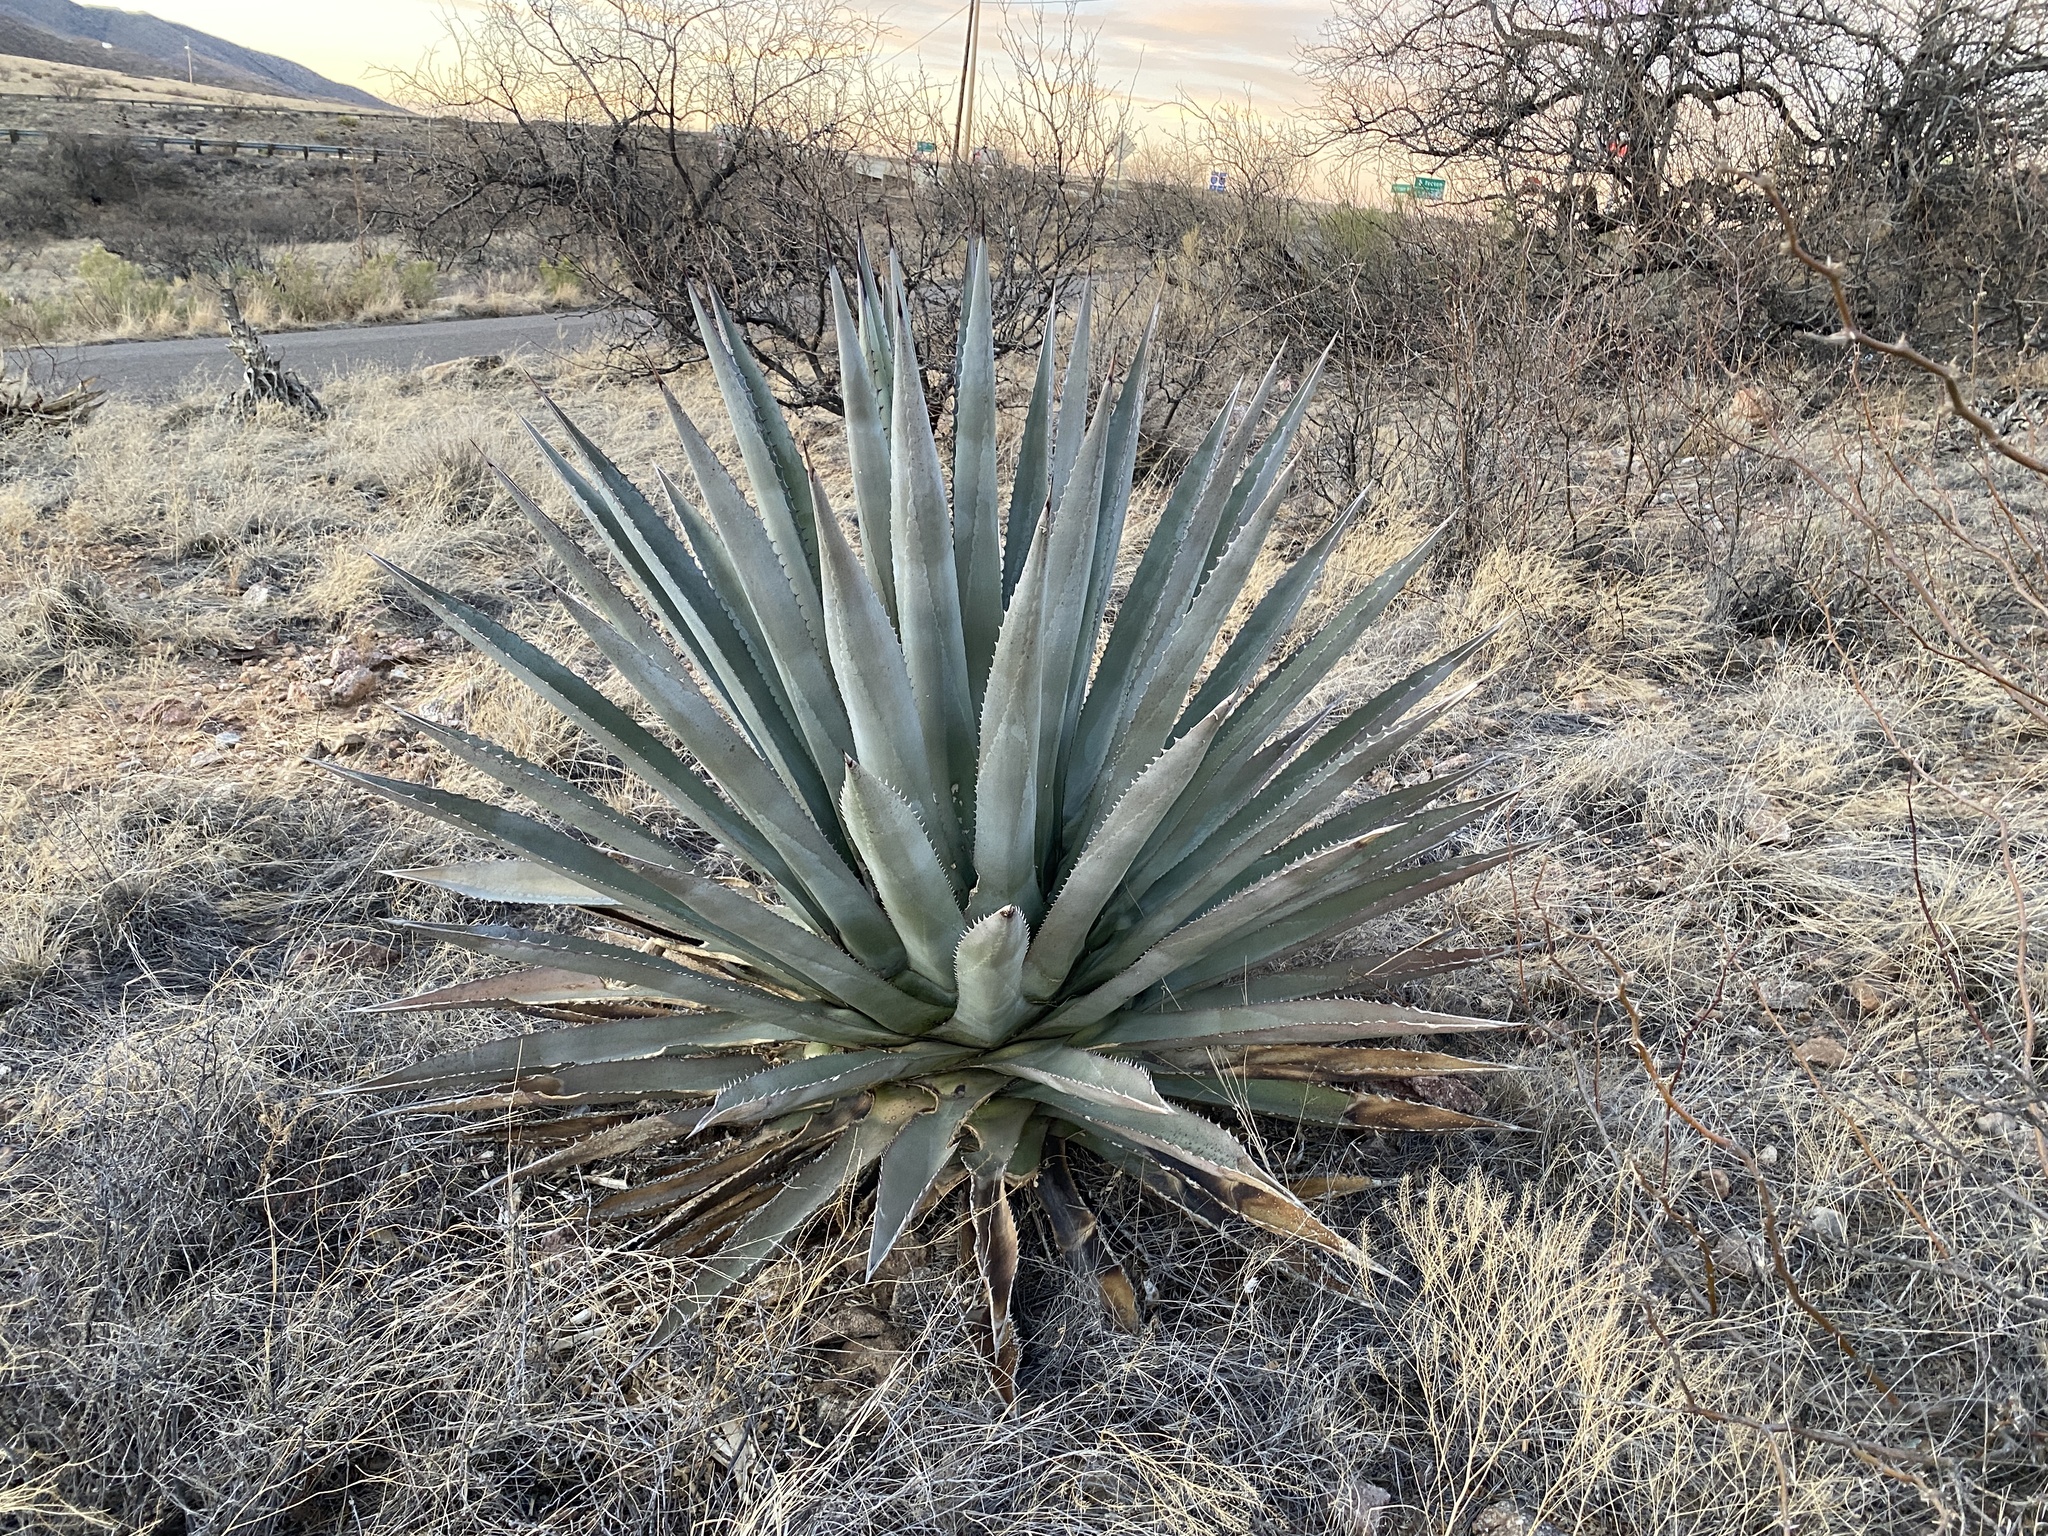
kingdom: Plantae
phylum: Tracheophyta
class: Liliopsida
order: Asparagales
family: Asparagaceae
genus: Agave
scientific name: Agave palmeri
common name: Palmer agave
